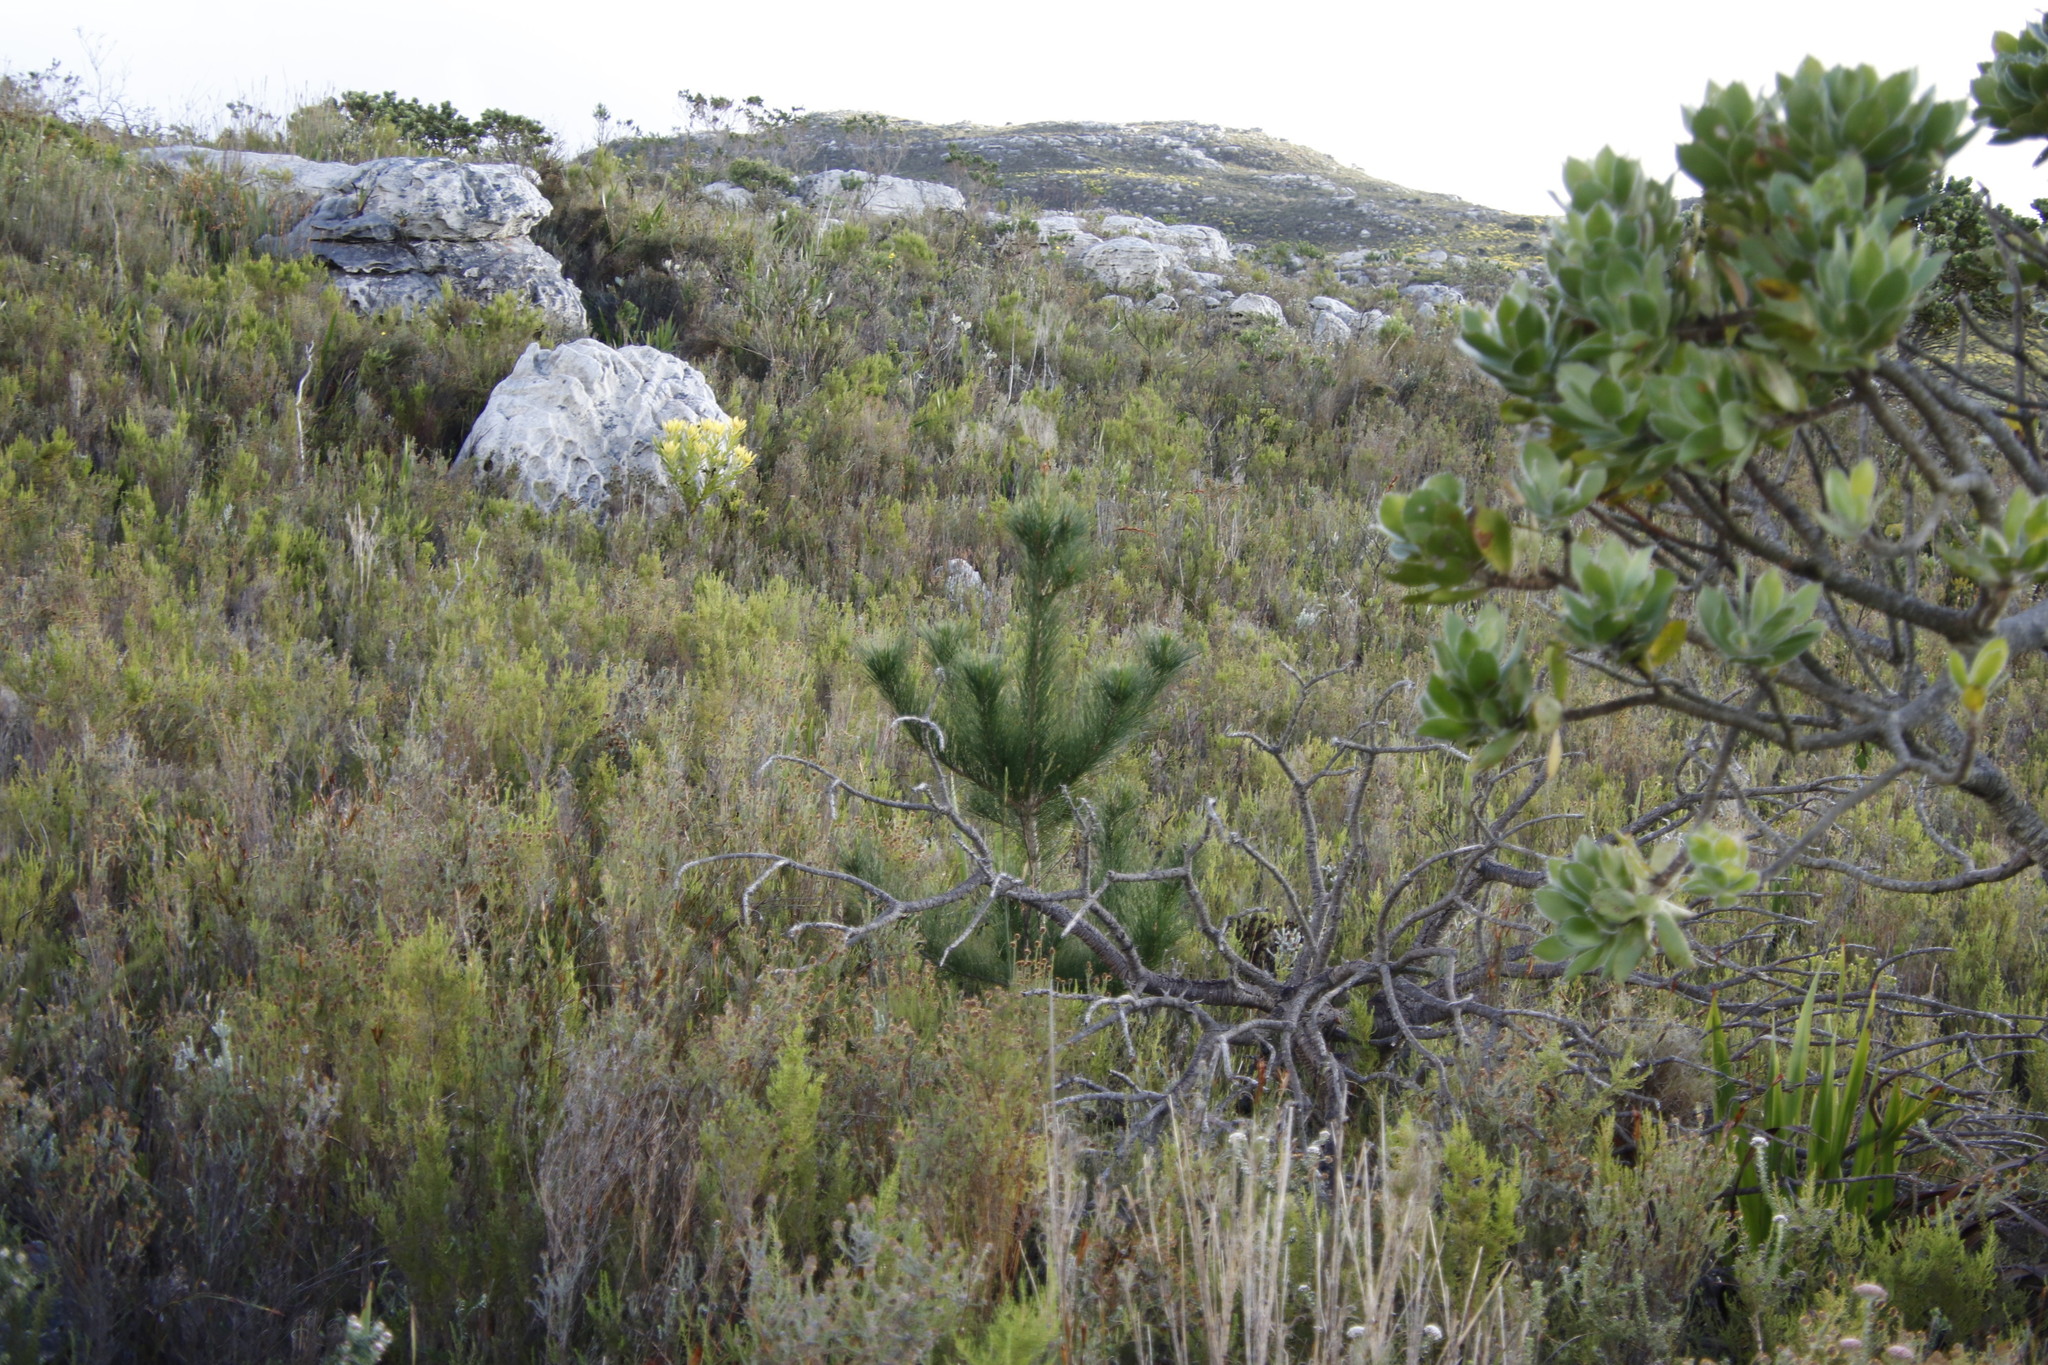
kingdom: Plantae
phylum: Tracheophyta
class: Pinopsida
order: Pinales
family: Pinaceae
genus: Pinus
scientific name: Pinus radiata
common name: Monterey pine
